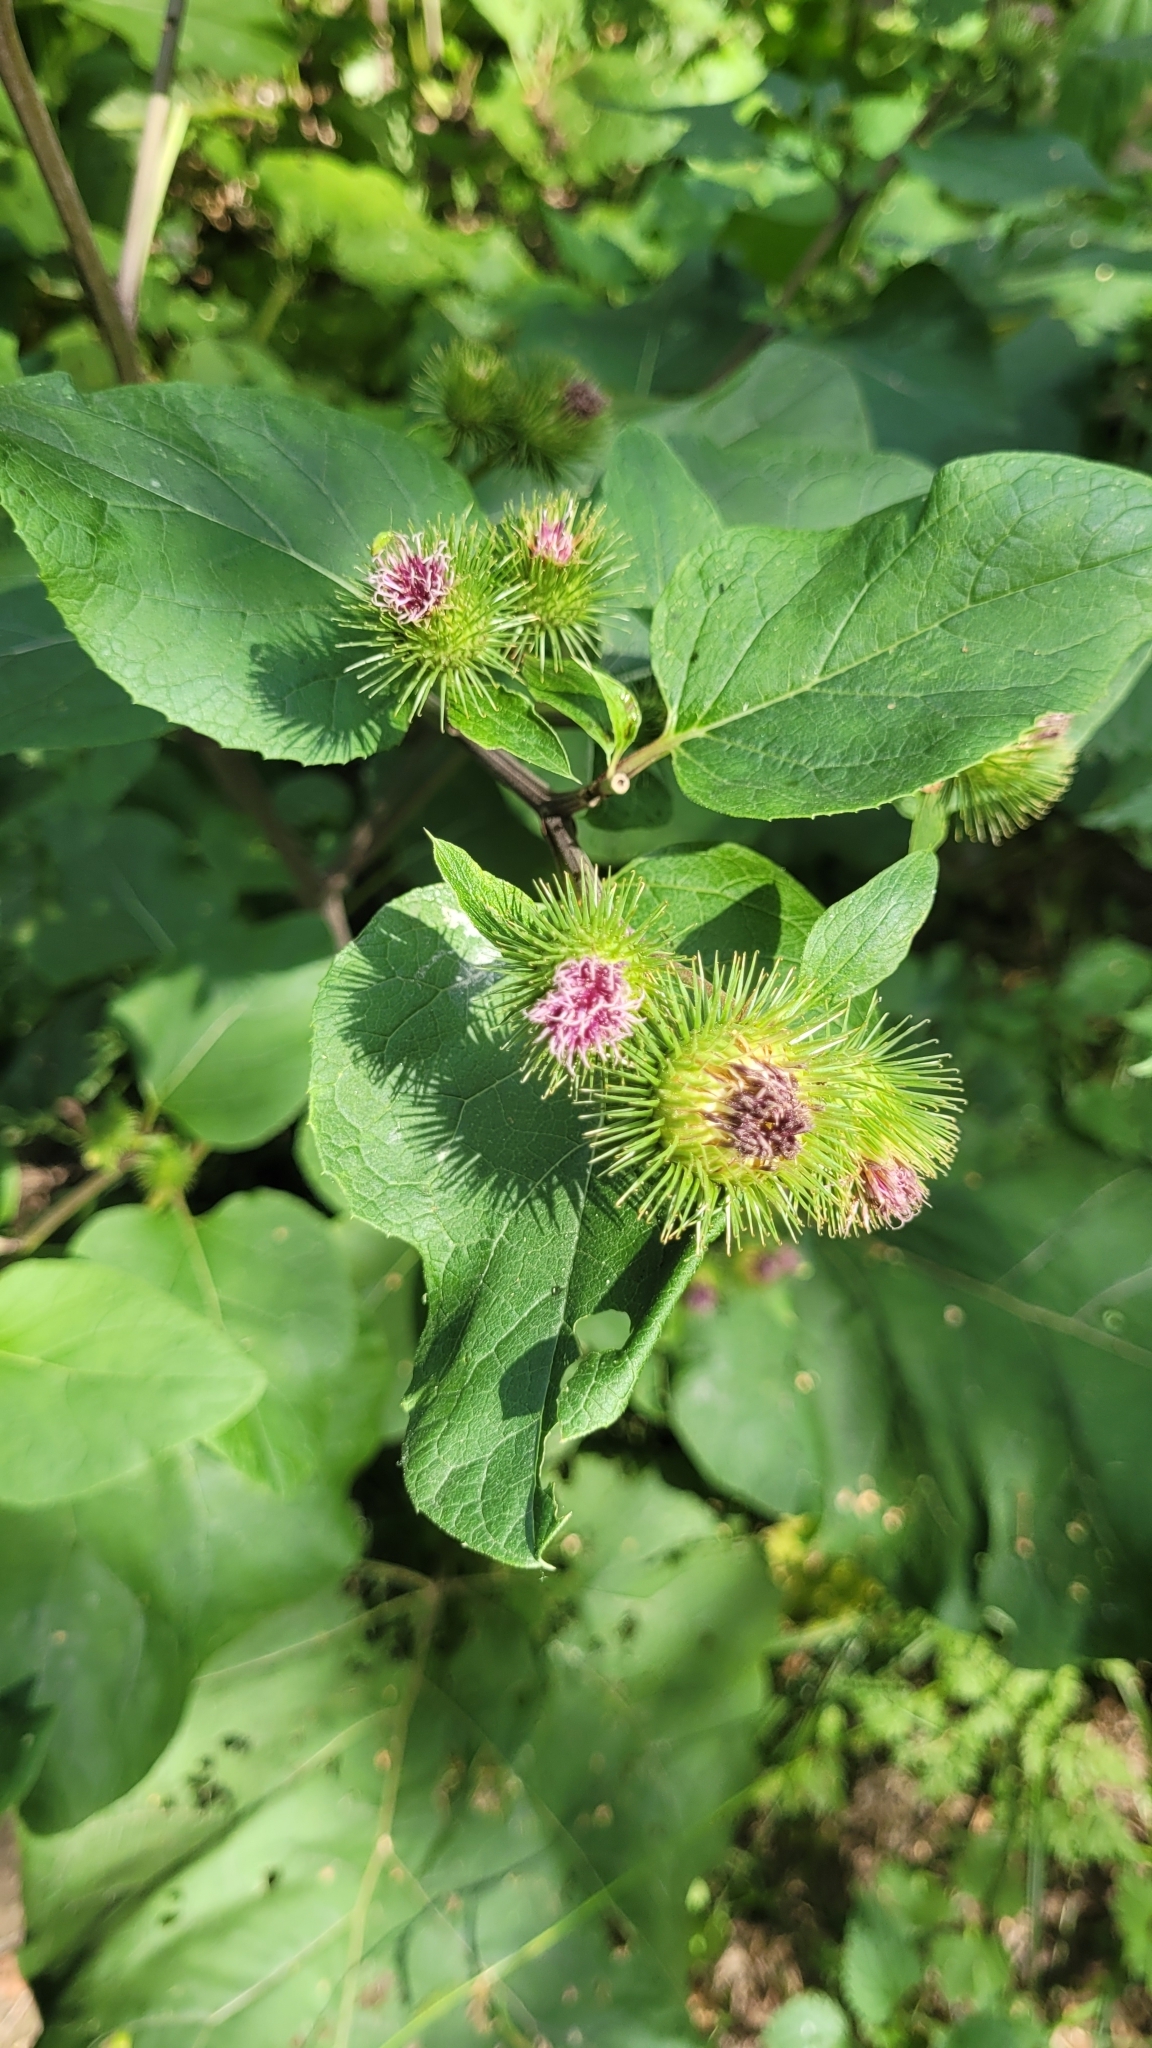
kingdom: Plantae
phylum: Tracheophyta
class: Magnoliopsida
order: Asterales
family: Asteraceae
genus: Arctium
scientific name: Arctium minus
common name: Lesser burdock
